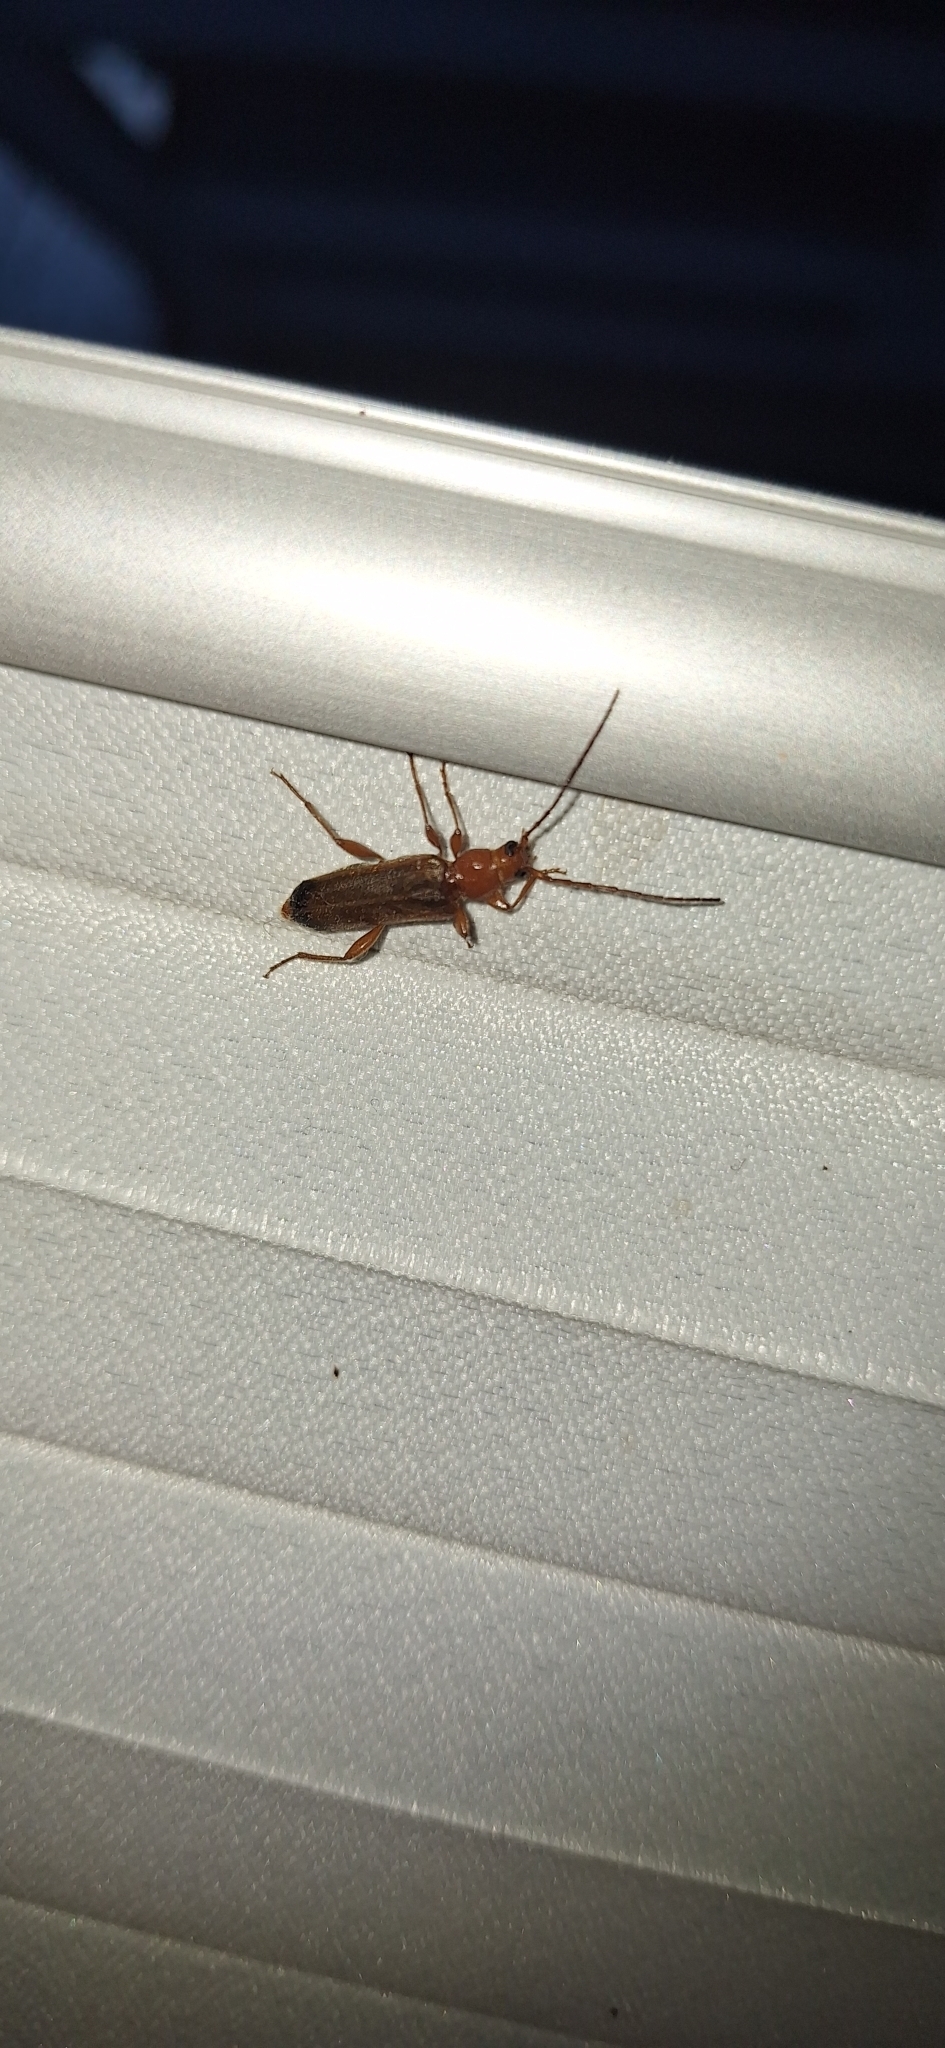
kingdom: Animalia
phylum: Arthropoda
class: Insecta
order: Coleoptera
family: Cerambycidae
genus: Phymatodes
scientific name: Phymatodes testaceus
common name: Long-horned beetle
